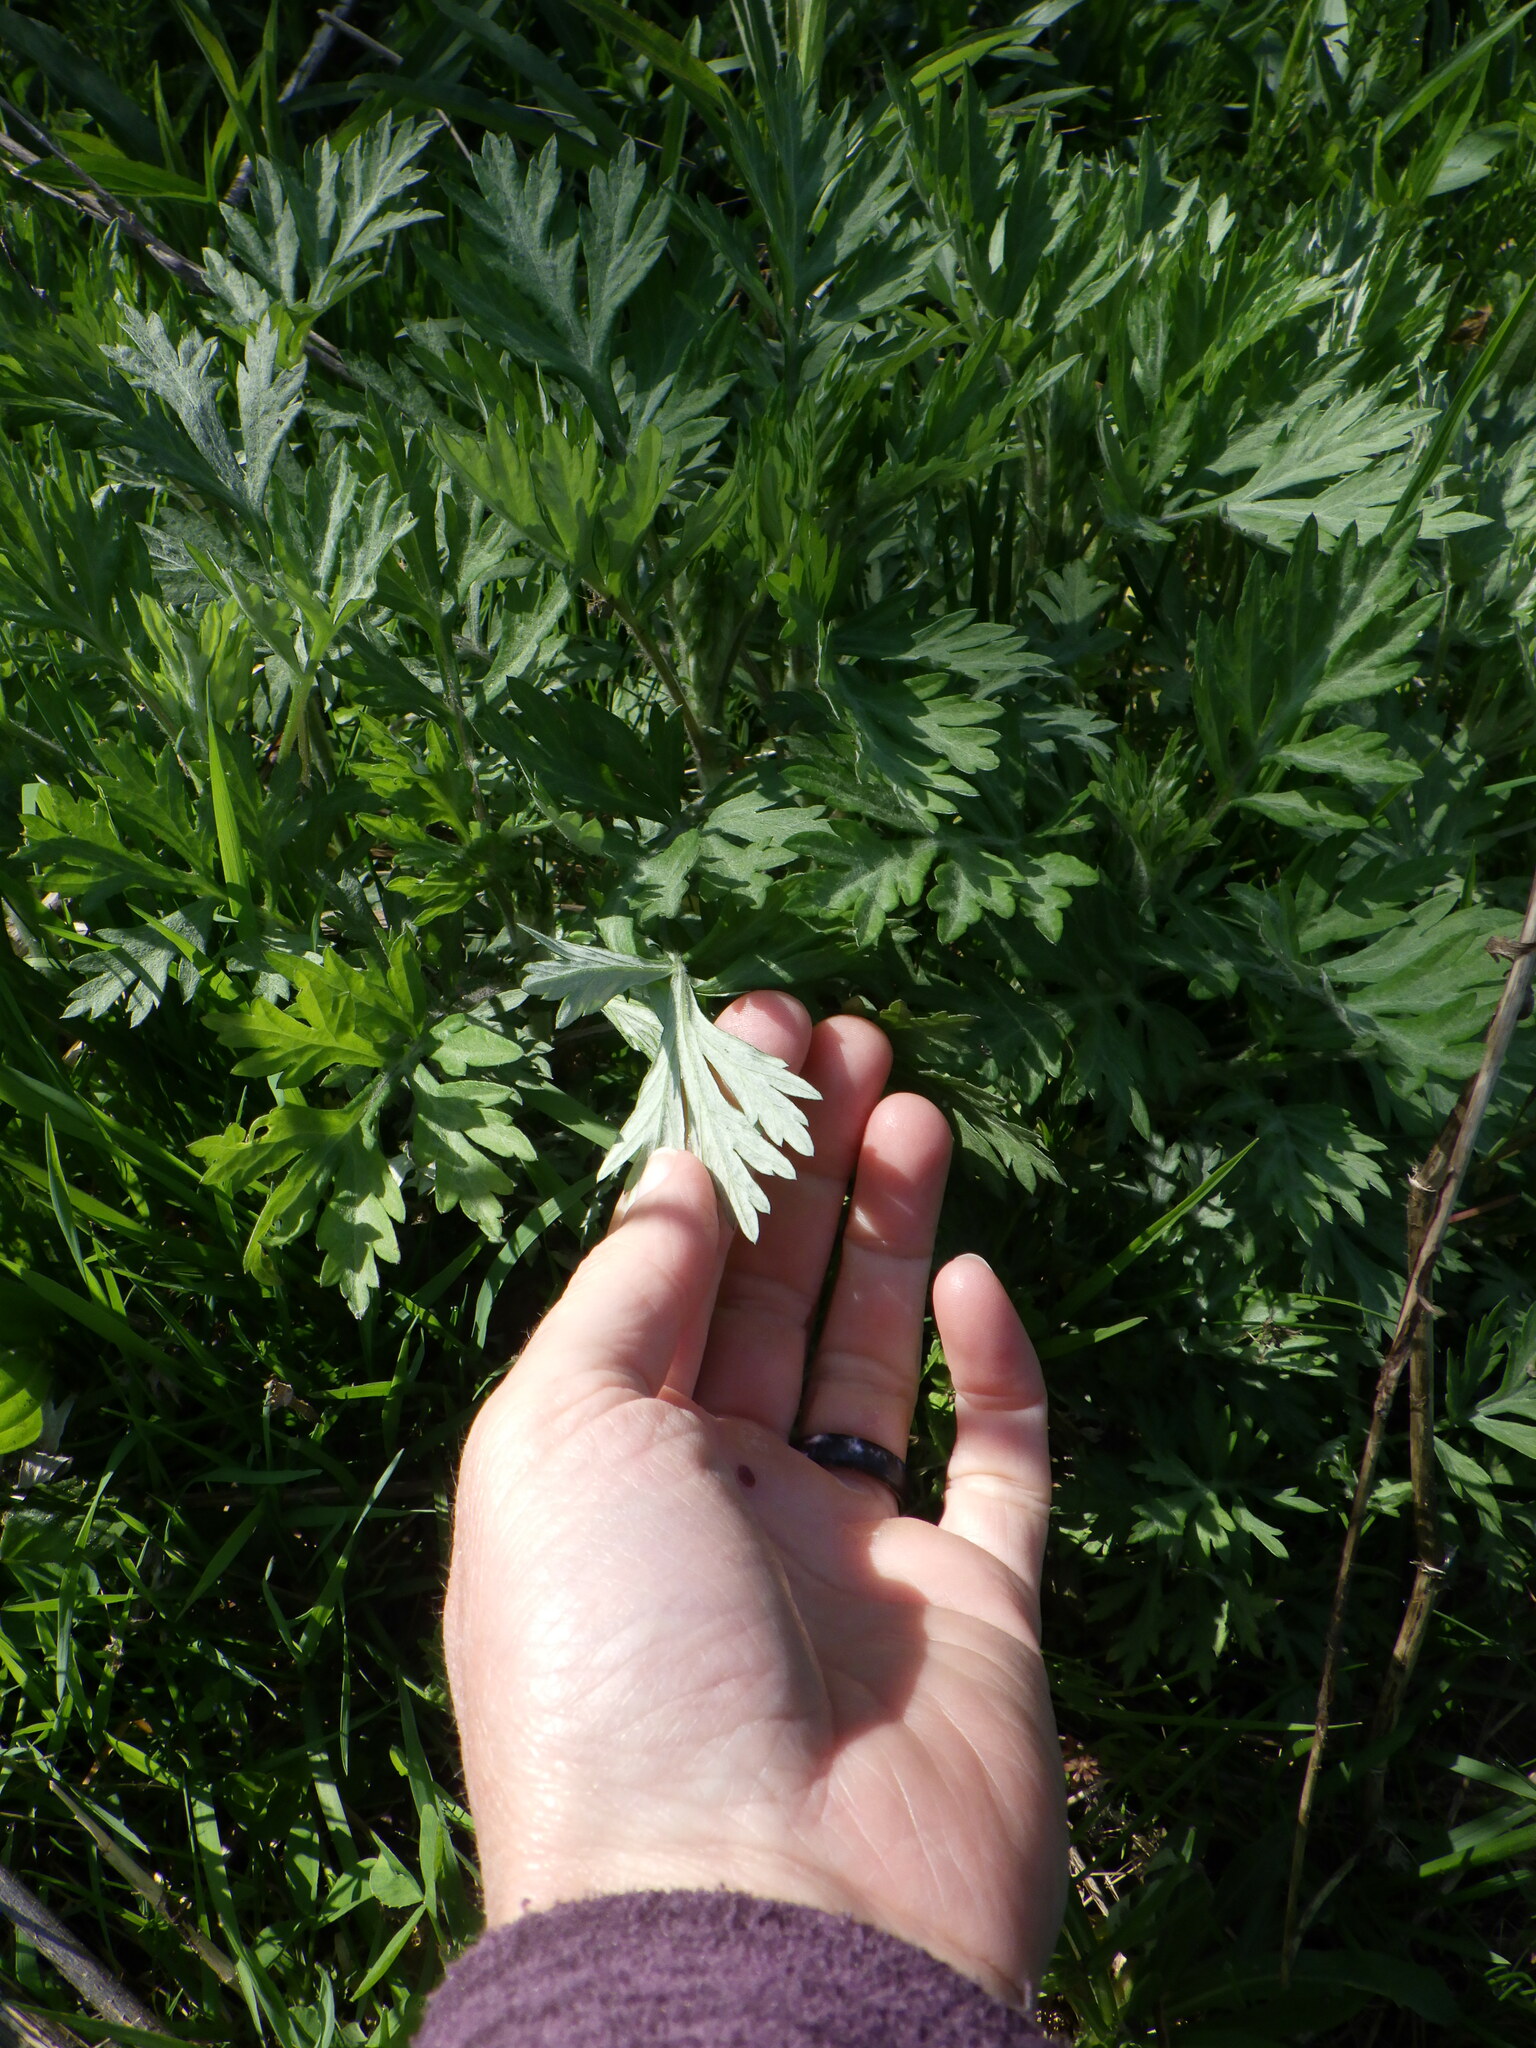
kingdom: Plantae
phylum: Tracheophyta
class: Magnoliopsida
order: Asterales
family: Asteraceae
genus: Artemisia
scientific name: Artemisia vulgaris
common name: Mugwort
